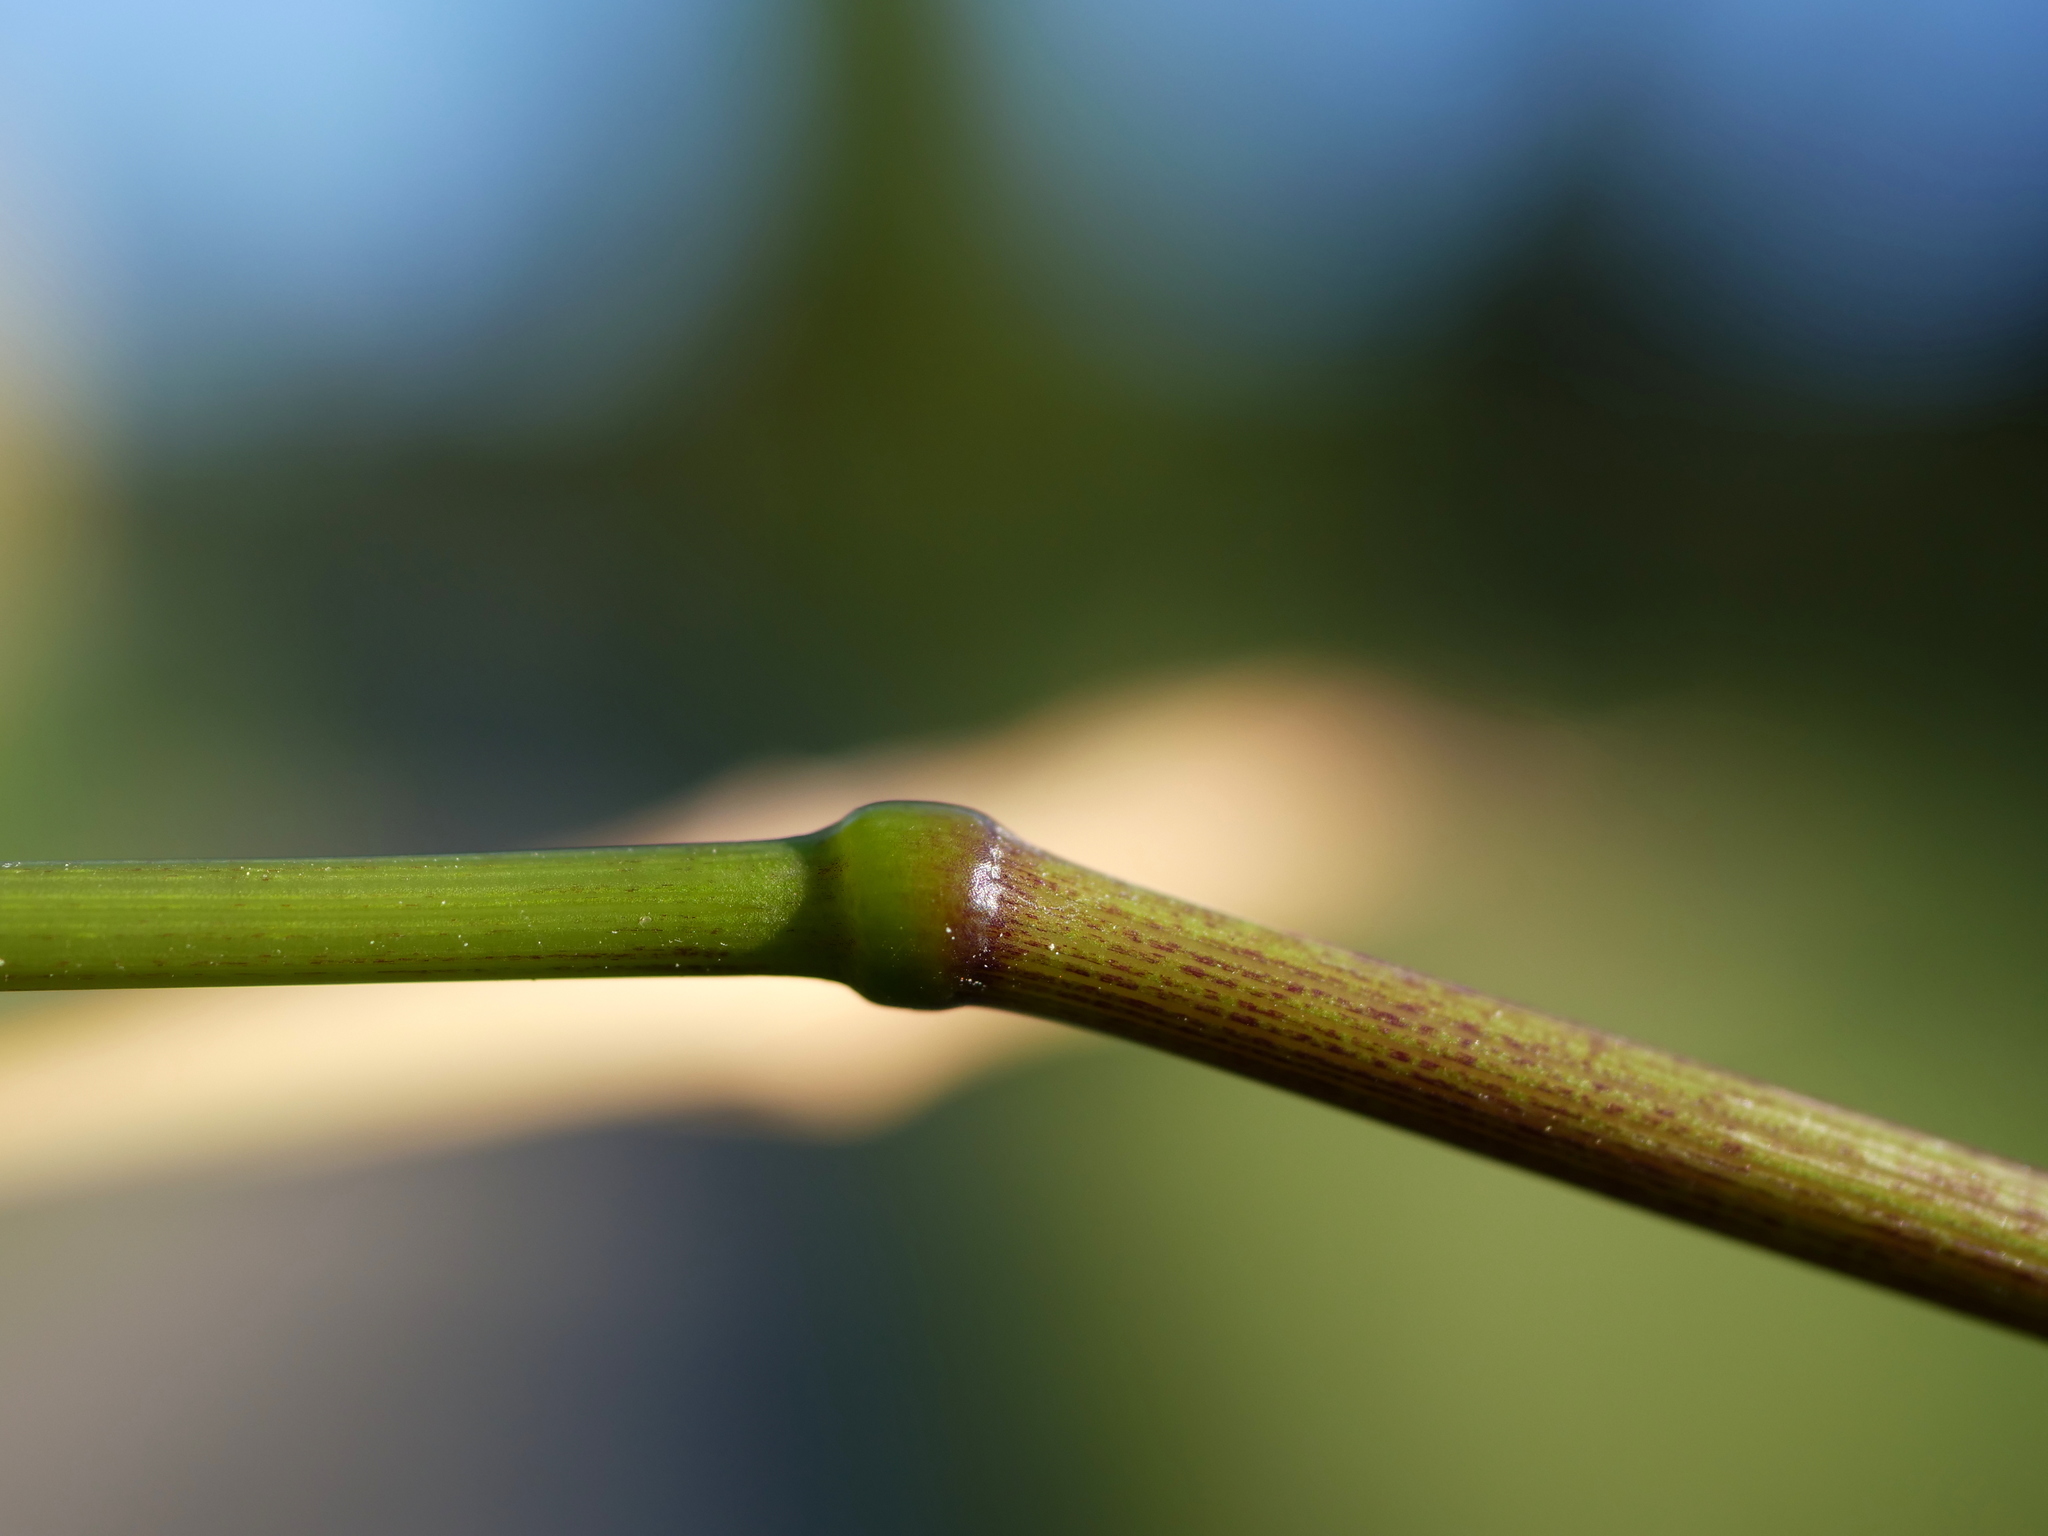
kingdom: Plantae
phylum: Tracheophyta
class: Liliopsida
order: Poales
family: Poaceae
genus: Elymus
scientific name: Elymus caninus
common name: Bearded couch
